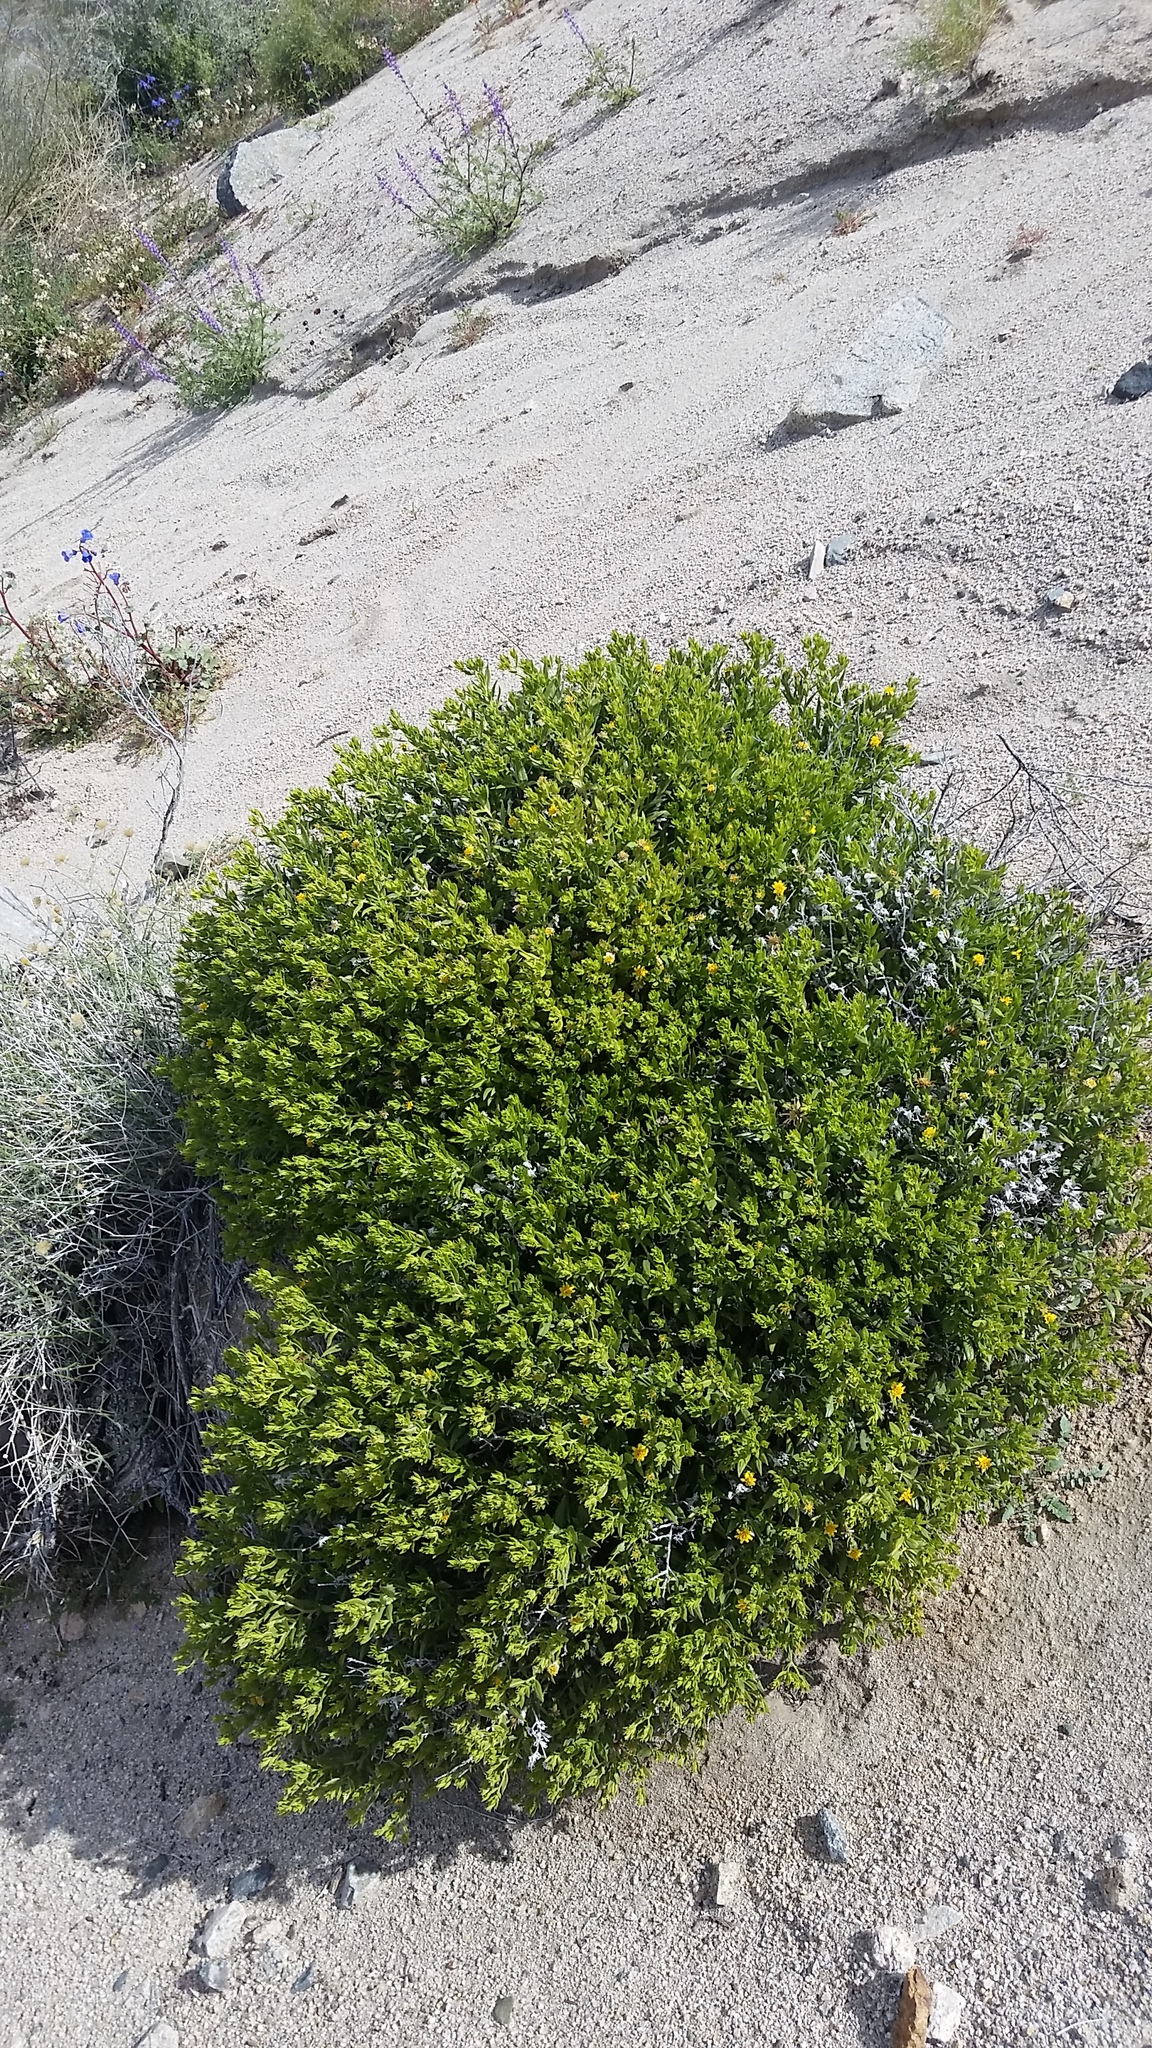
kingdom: Plantae
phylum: Tracheophyta
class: Magnoliopsida
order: Asterales
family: Asteraceae
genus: Trixis
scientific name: Trixis californica
